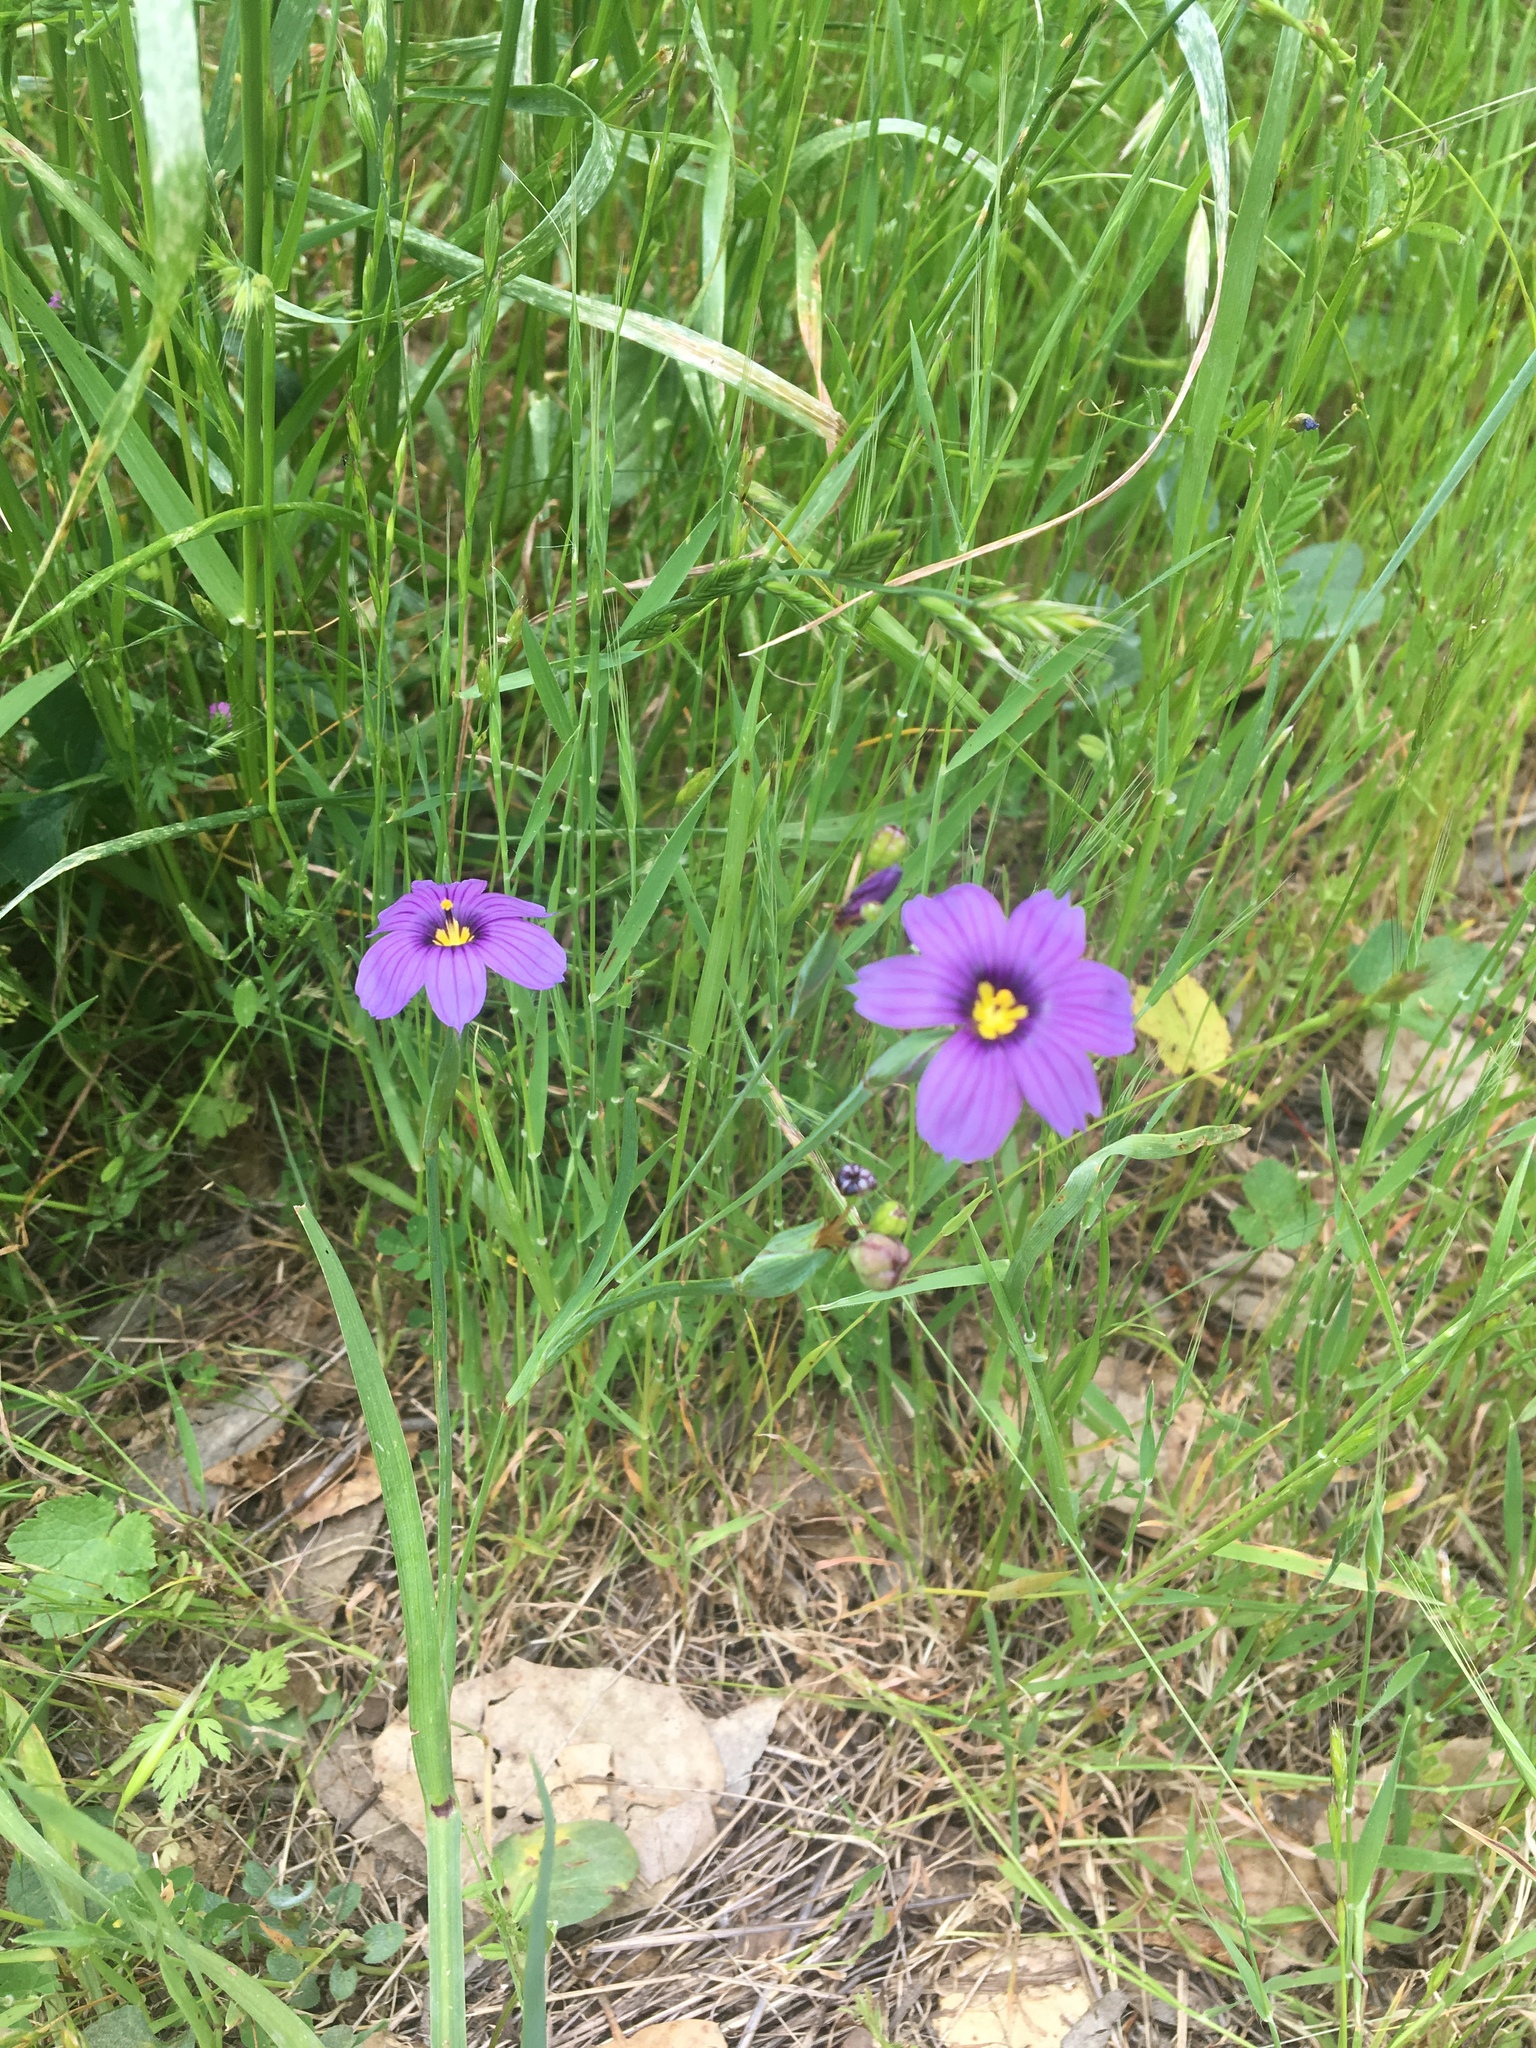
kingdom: Plantae
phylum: Tracheophyta
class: Liliopsida
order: Asparagales
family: Iridaceae
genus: Sisyrinchium
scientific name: Sisyrinchium bellum
